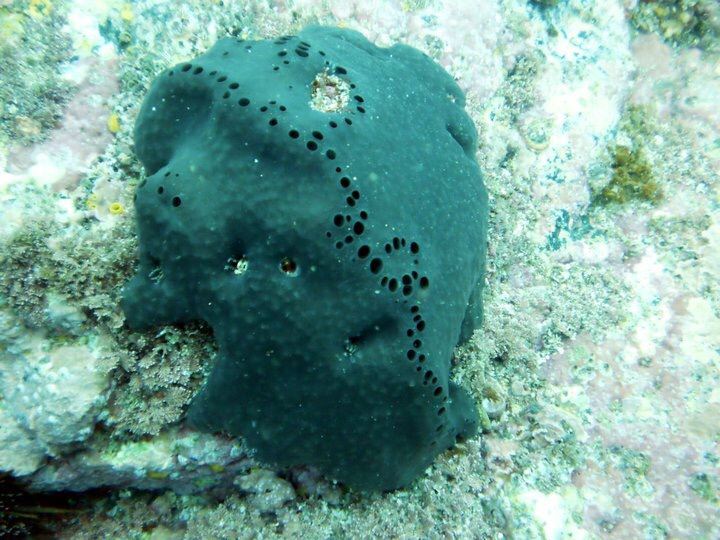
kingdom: Animalia
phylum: Porifera
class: Demospongiae
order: Dictyoceratida
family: Irciniidae
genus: Psammocinia
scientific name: Psammocinia perforodosa
